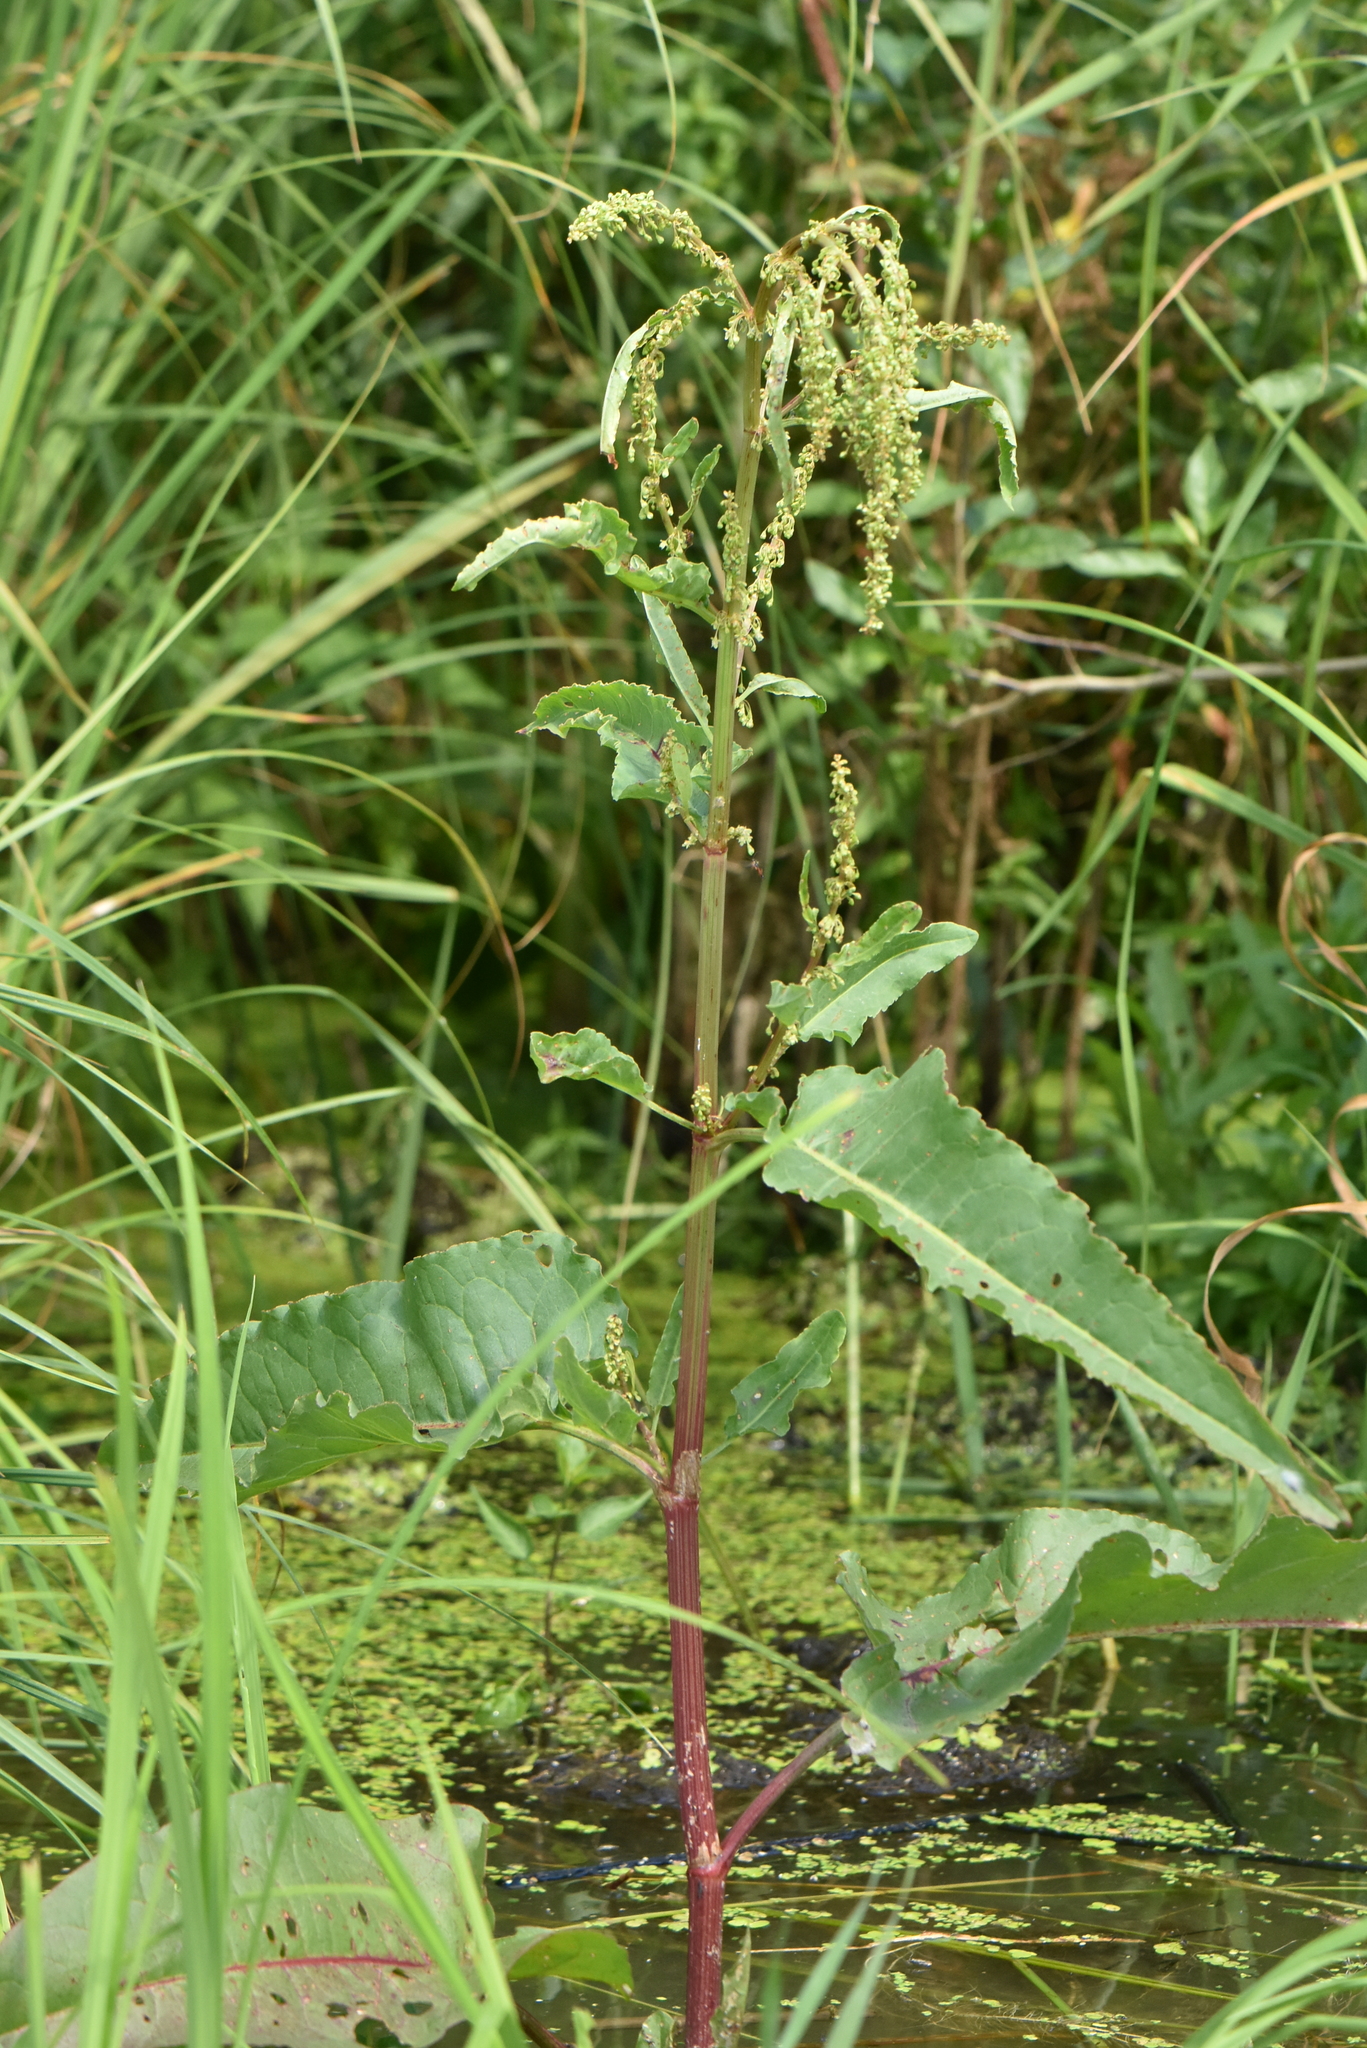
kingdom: Plantae
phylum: Tracheophyta
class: Magnoliopsida
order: Caryophyllales
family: Polygonaceae
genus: Rumex
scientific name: Rumex aquaticus
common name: Scottish dock
